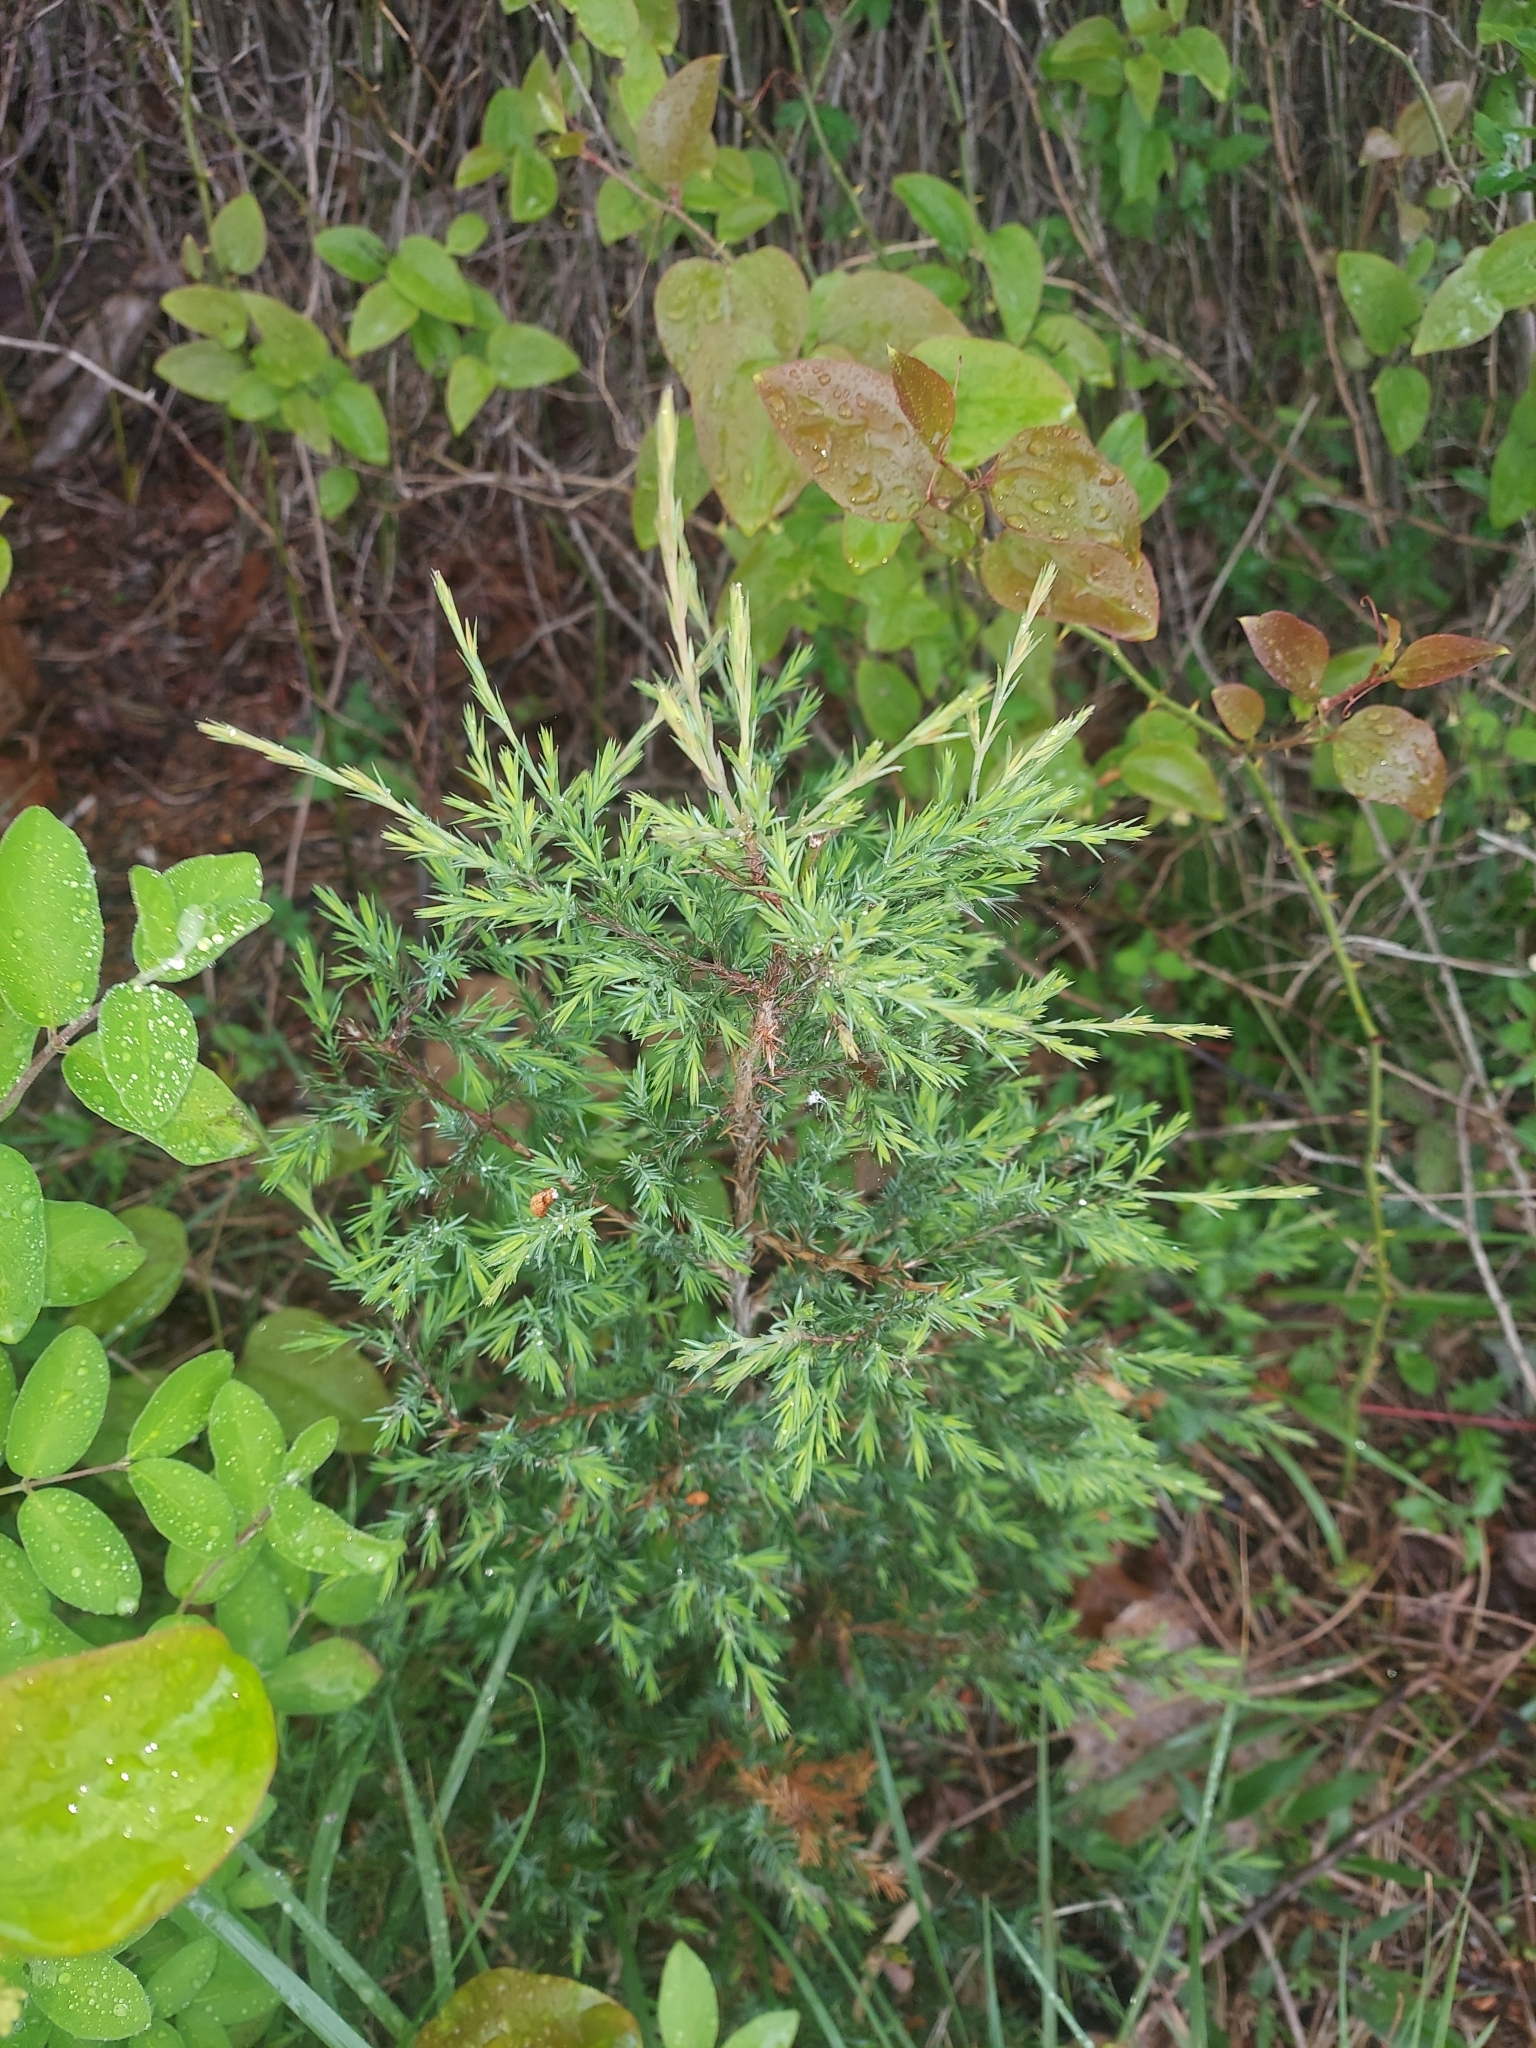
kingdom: Plantae
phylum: Tracheophyta
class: Pinopsida
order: Pinales
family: Cupressaceae
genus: Juniperus
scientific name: Juniperus virginiana
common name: Red juniper
